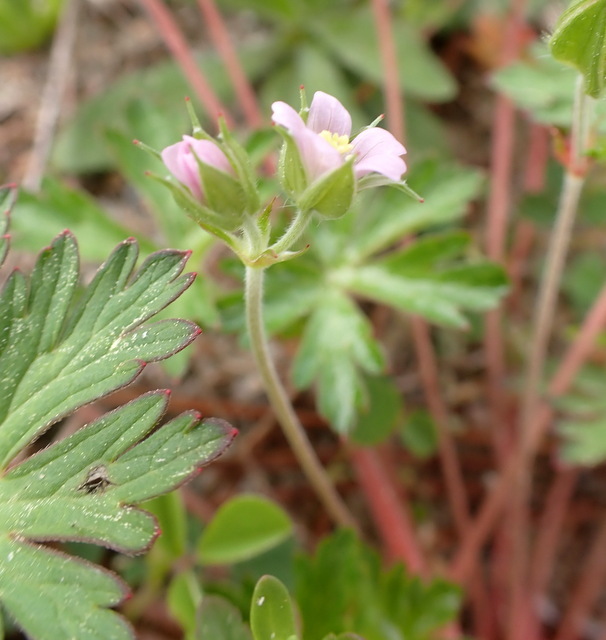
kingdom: Plantae
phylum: Tracheophyta
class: Magnoliopsida
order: Geraniales
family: Geraniaceae
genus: Geranium
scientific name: Geranium carolinianum
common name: Carolina crane's-bill
